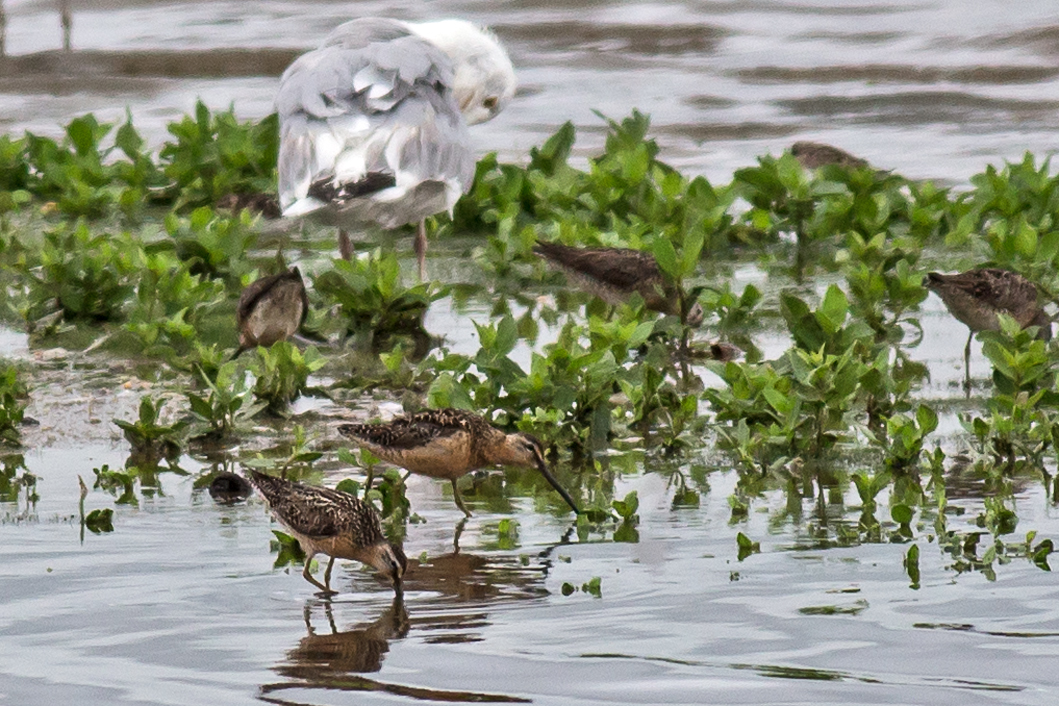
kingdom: Animalia
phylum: Chordata
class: Aves
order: Charadriiformes
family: Scolopacidae
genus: Limnodromus
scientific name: Limnodromus griseus
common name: Short-billed dowitcher
